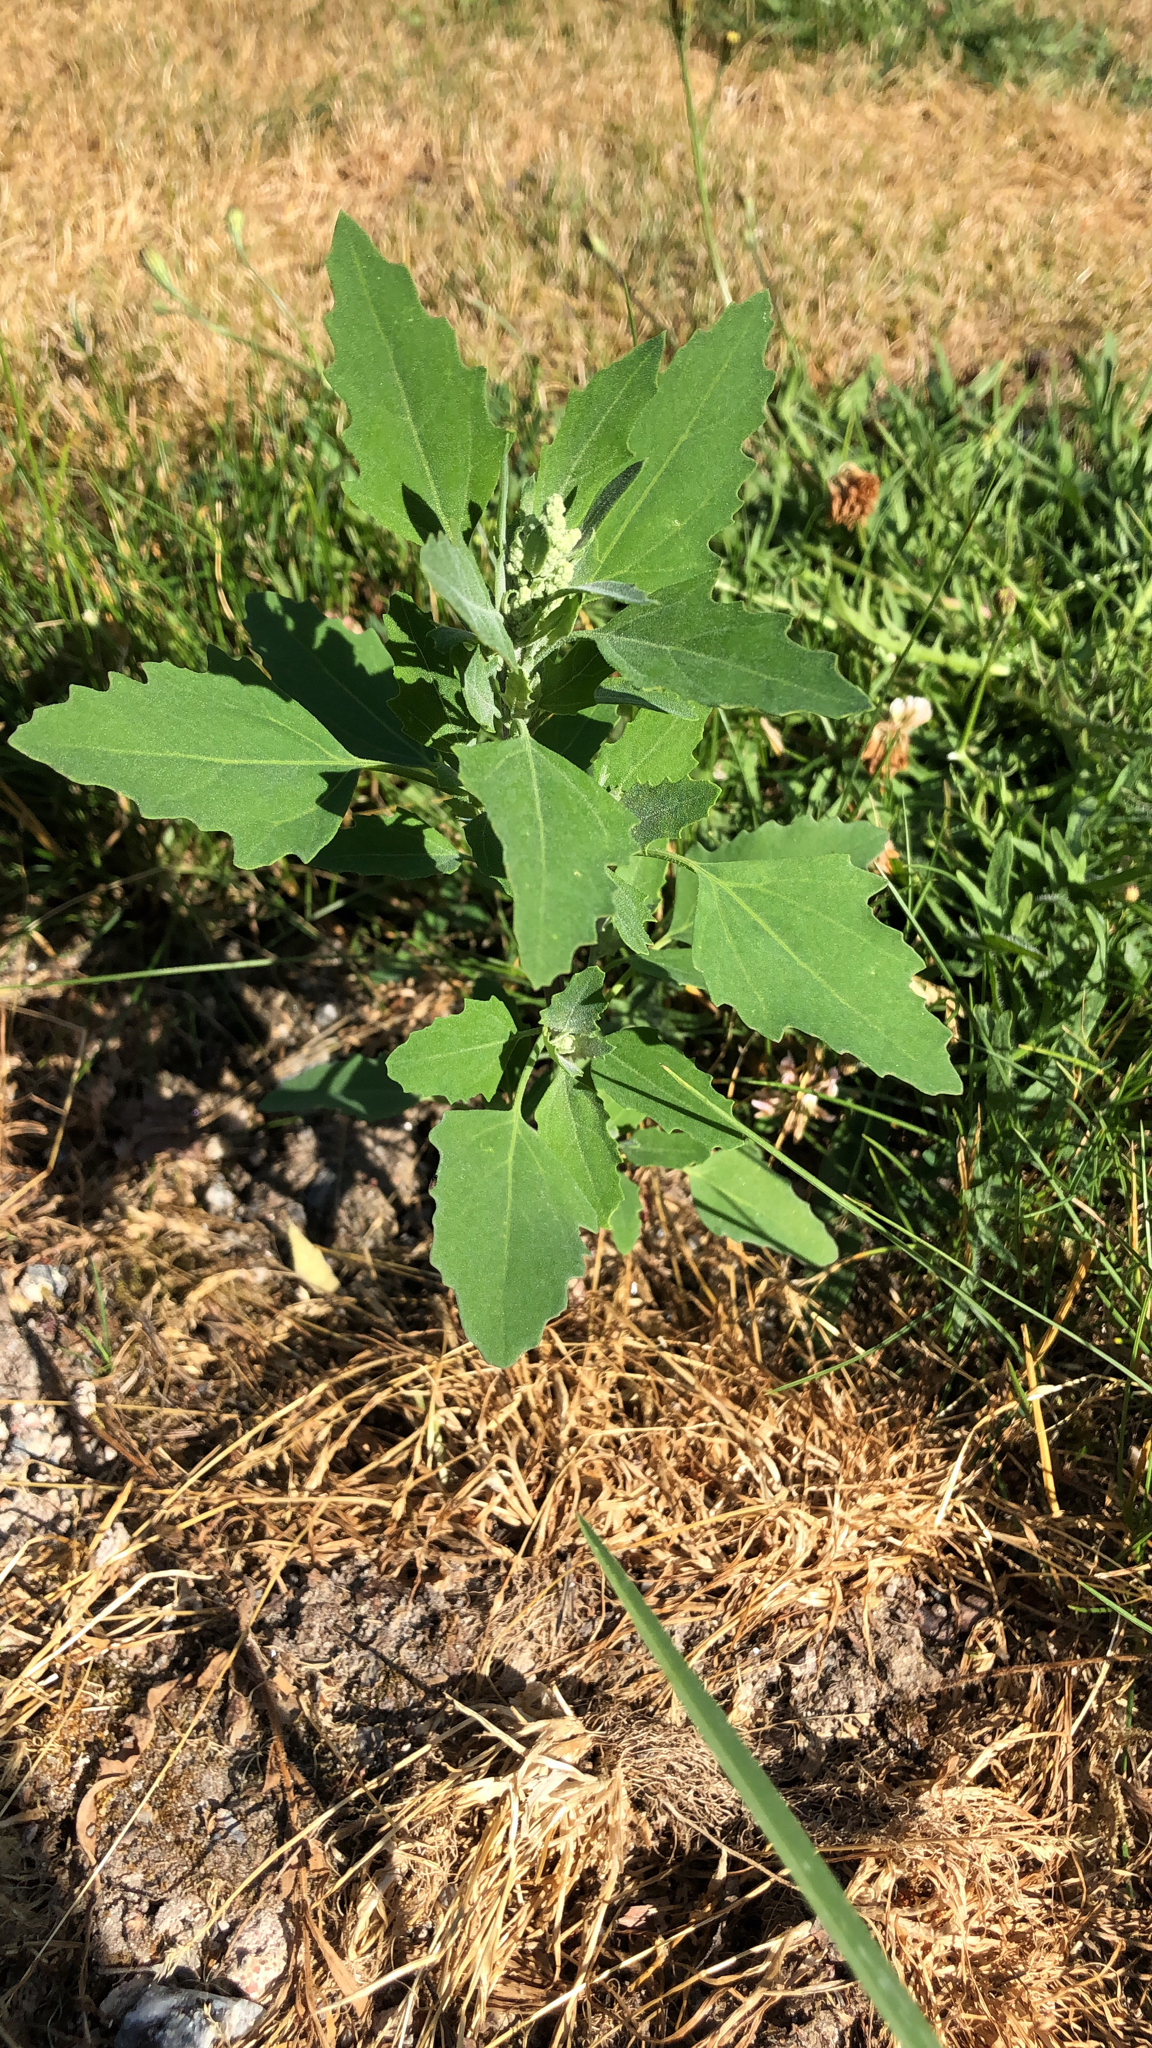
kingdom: Plantae
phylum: Tracheophyta
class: Magnoliopsida
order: Caryophyllales
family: Amaranthaceae
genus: Chenopodium
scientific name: Chenopodium album
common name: Fat-hen
